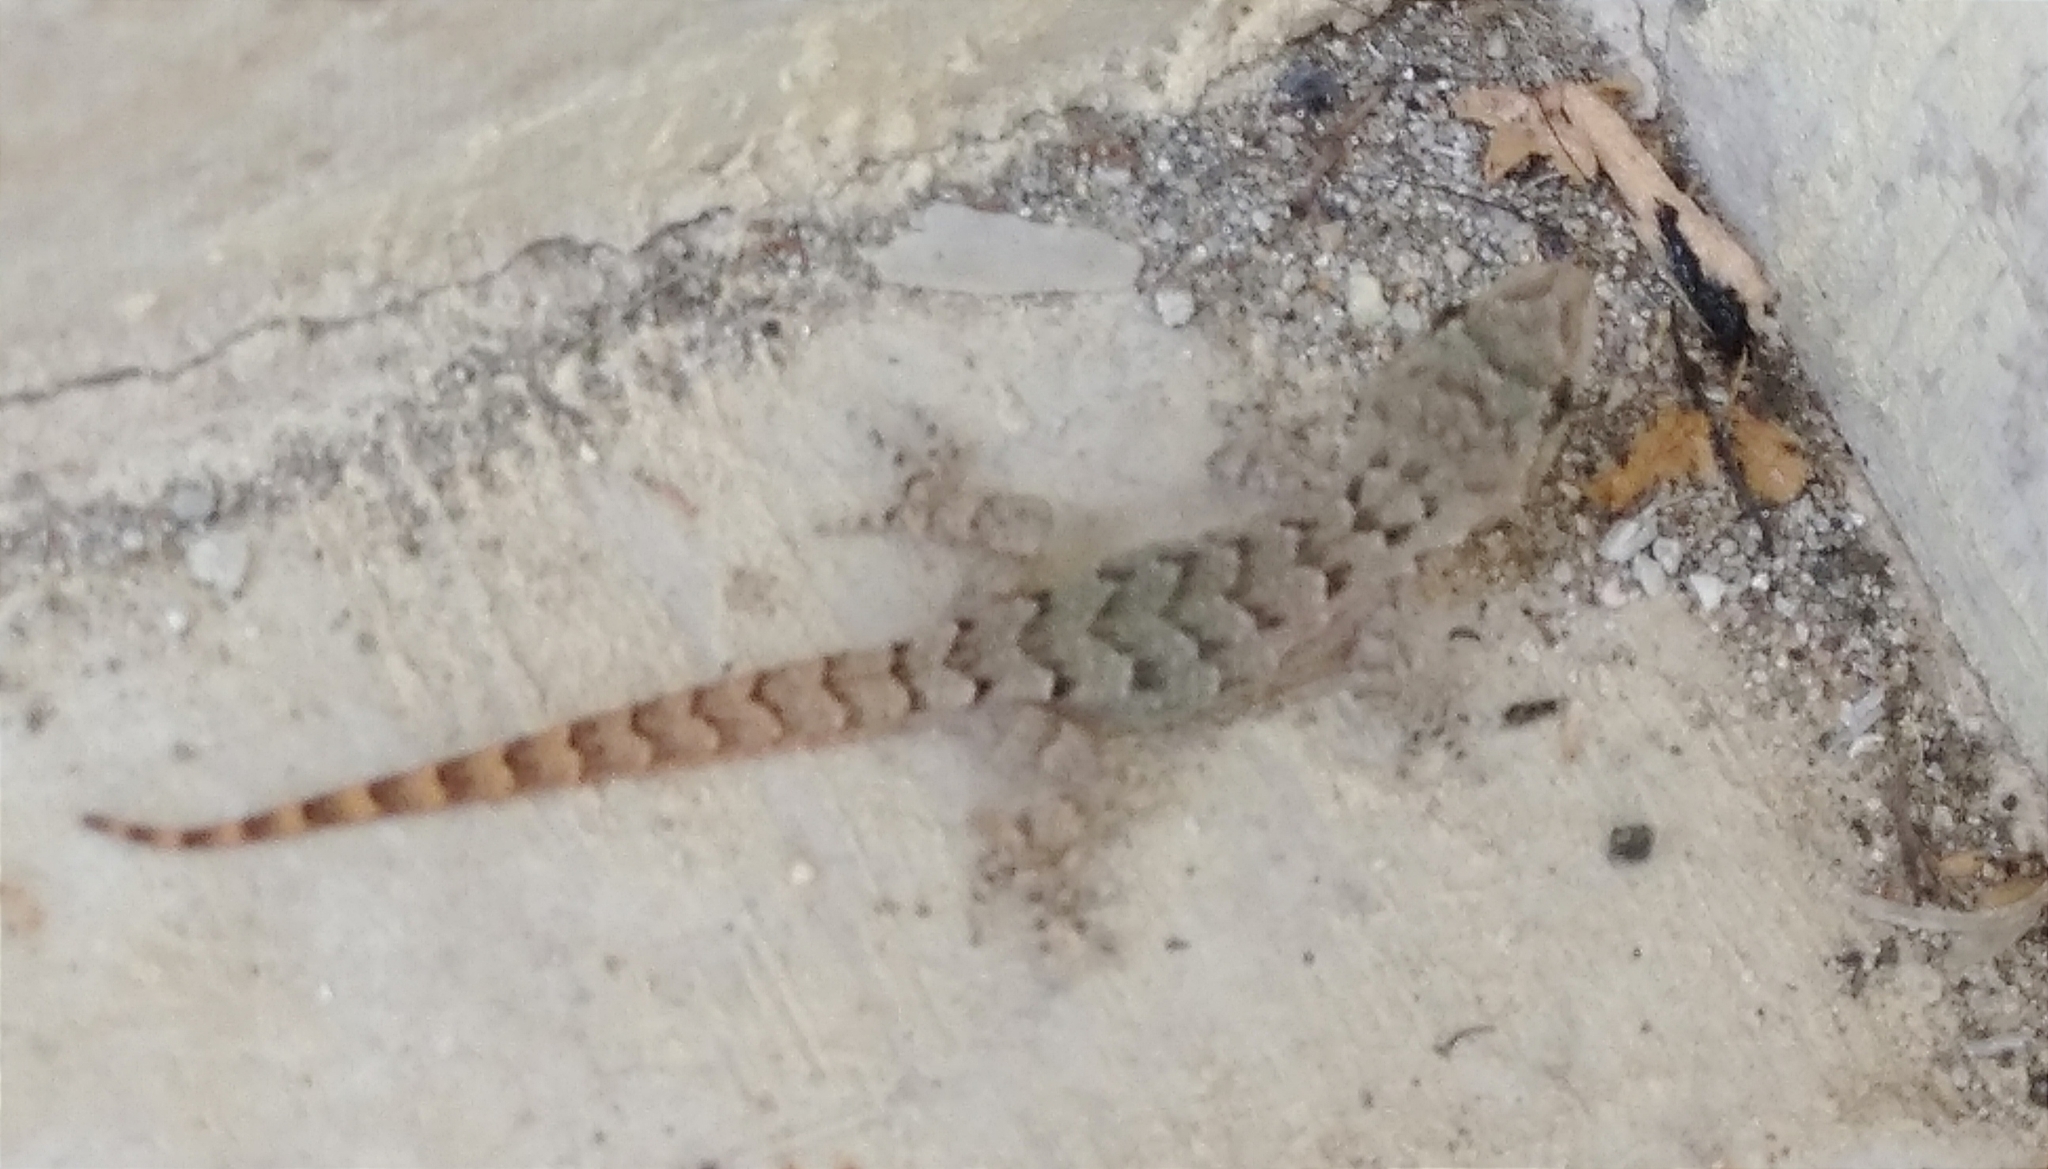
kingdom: Animalia
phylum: Chordata
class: Squamata
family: Gekkonidae
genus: Mediodactylus
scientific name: Mediodactylus danilewskii
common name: Bulgarian bent-toed gecko
